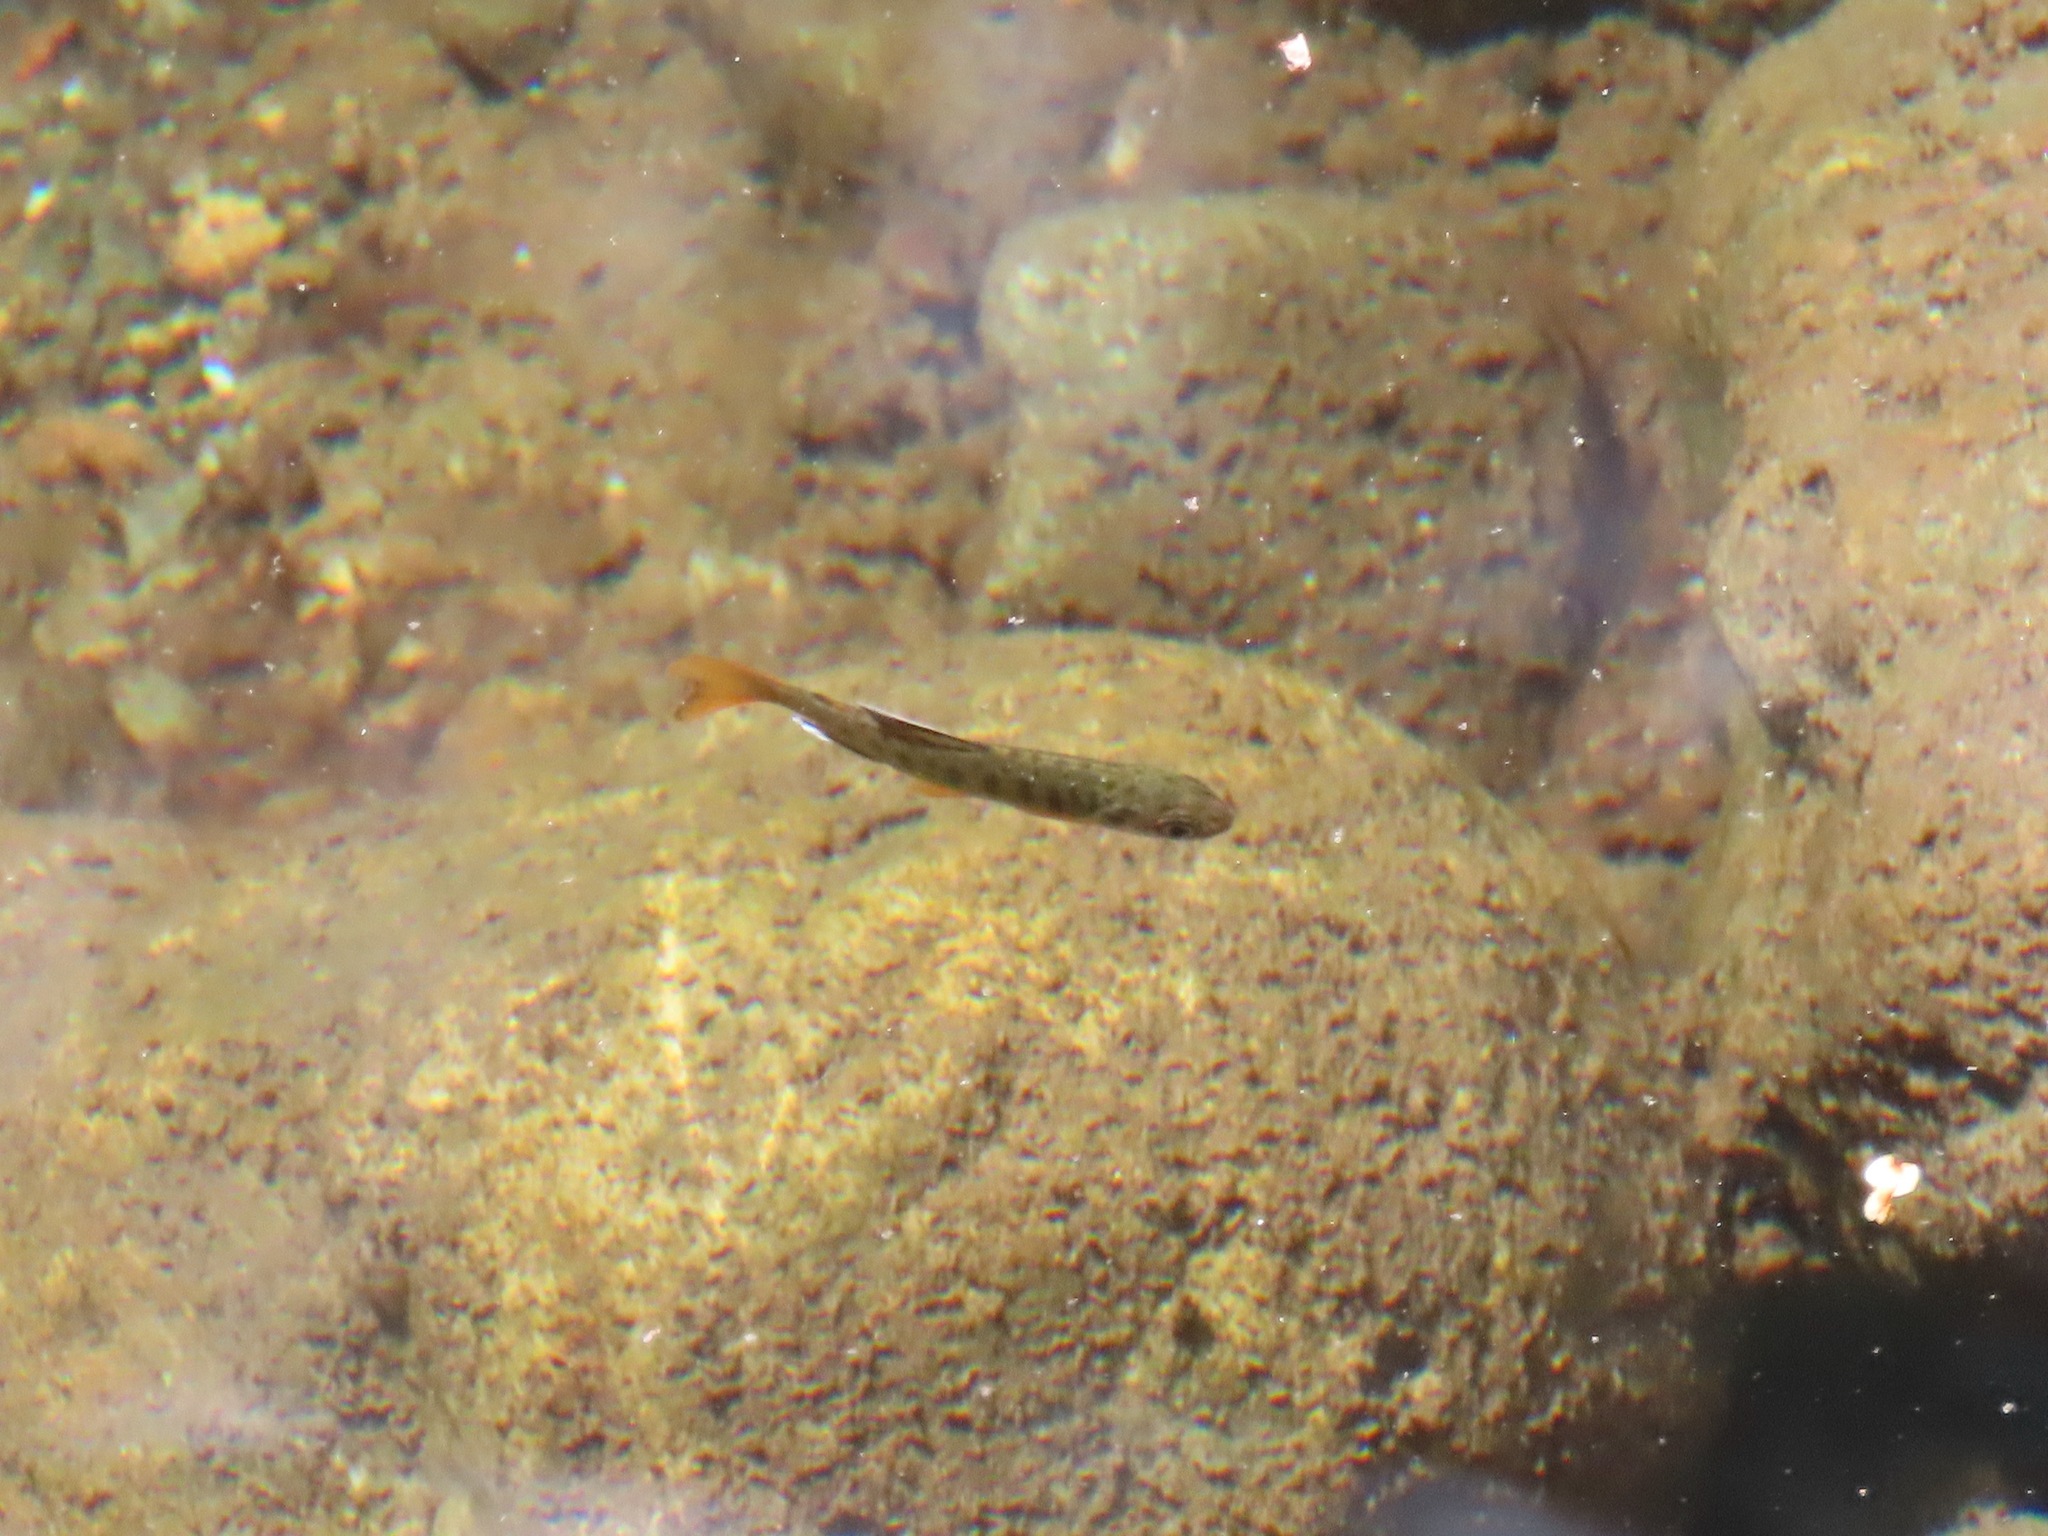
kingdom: Animalia
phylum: Chordata
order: Salmoniformes
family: Salmonidae
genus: Oncorhynchus
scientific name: Oncorhynchus kisutch
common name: Coho salmon
